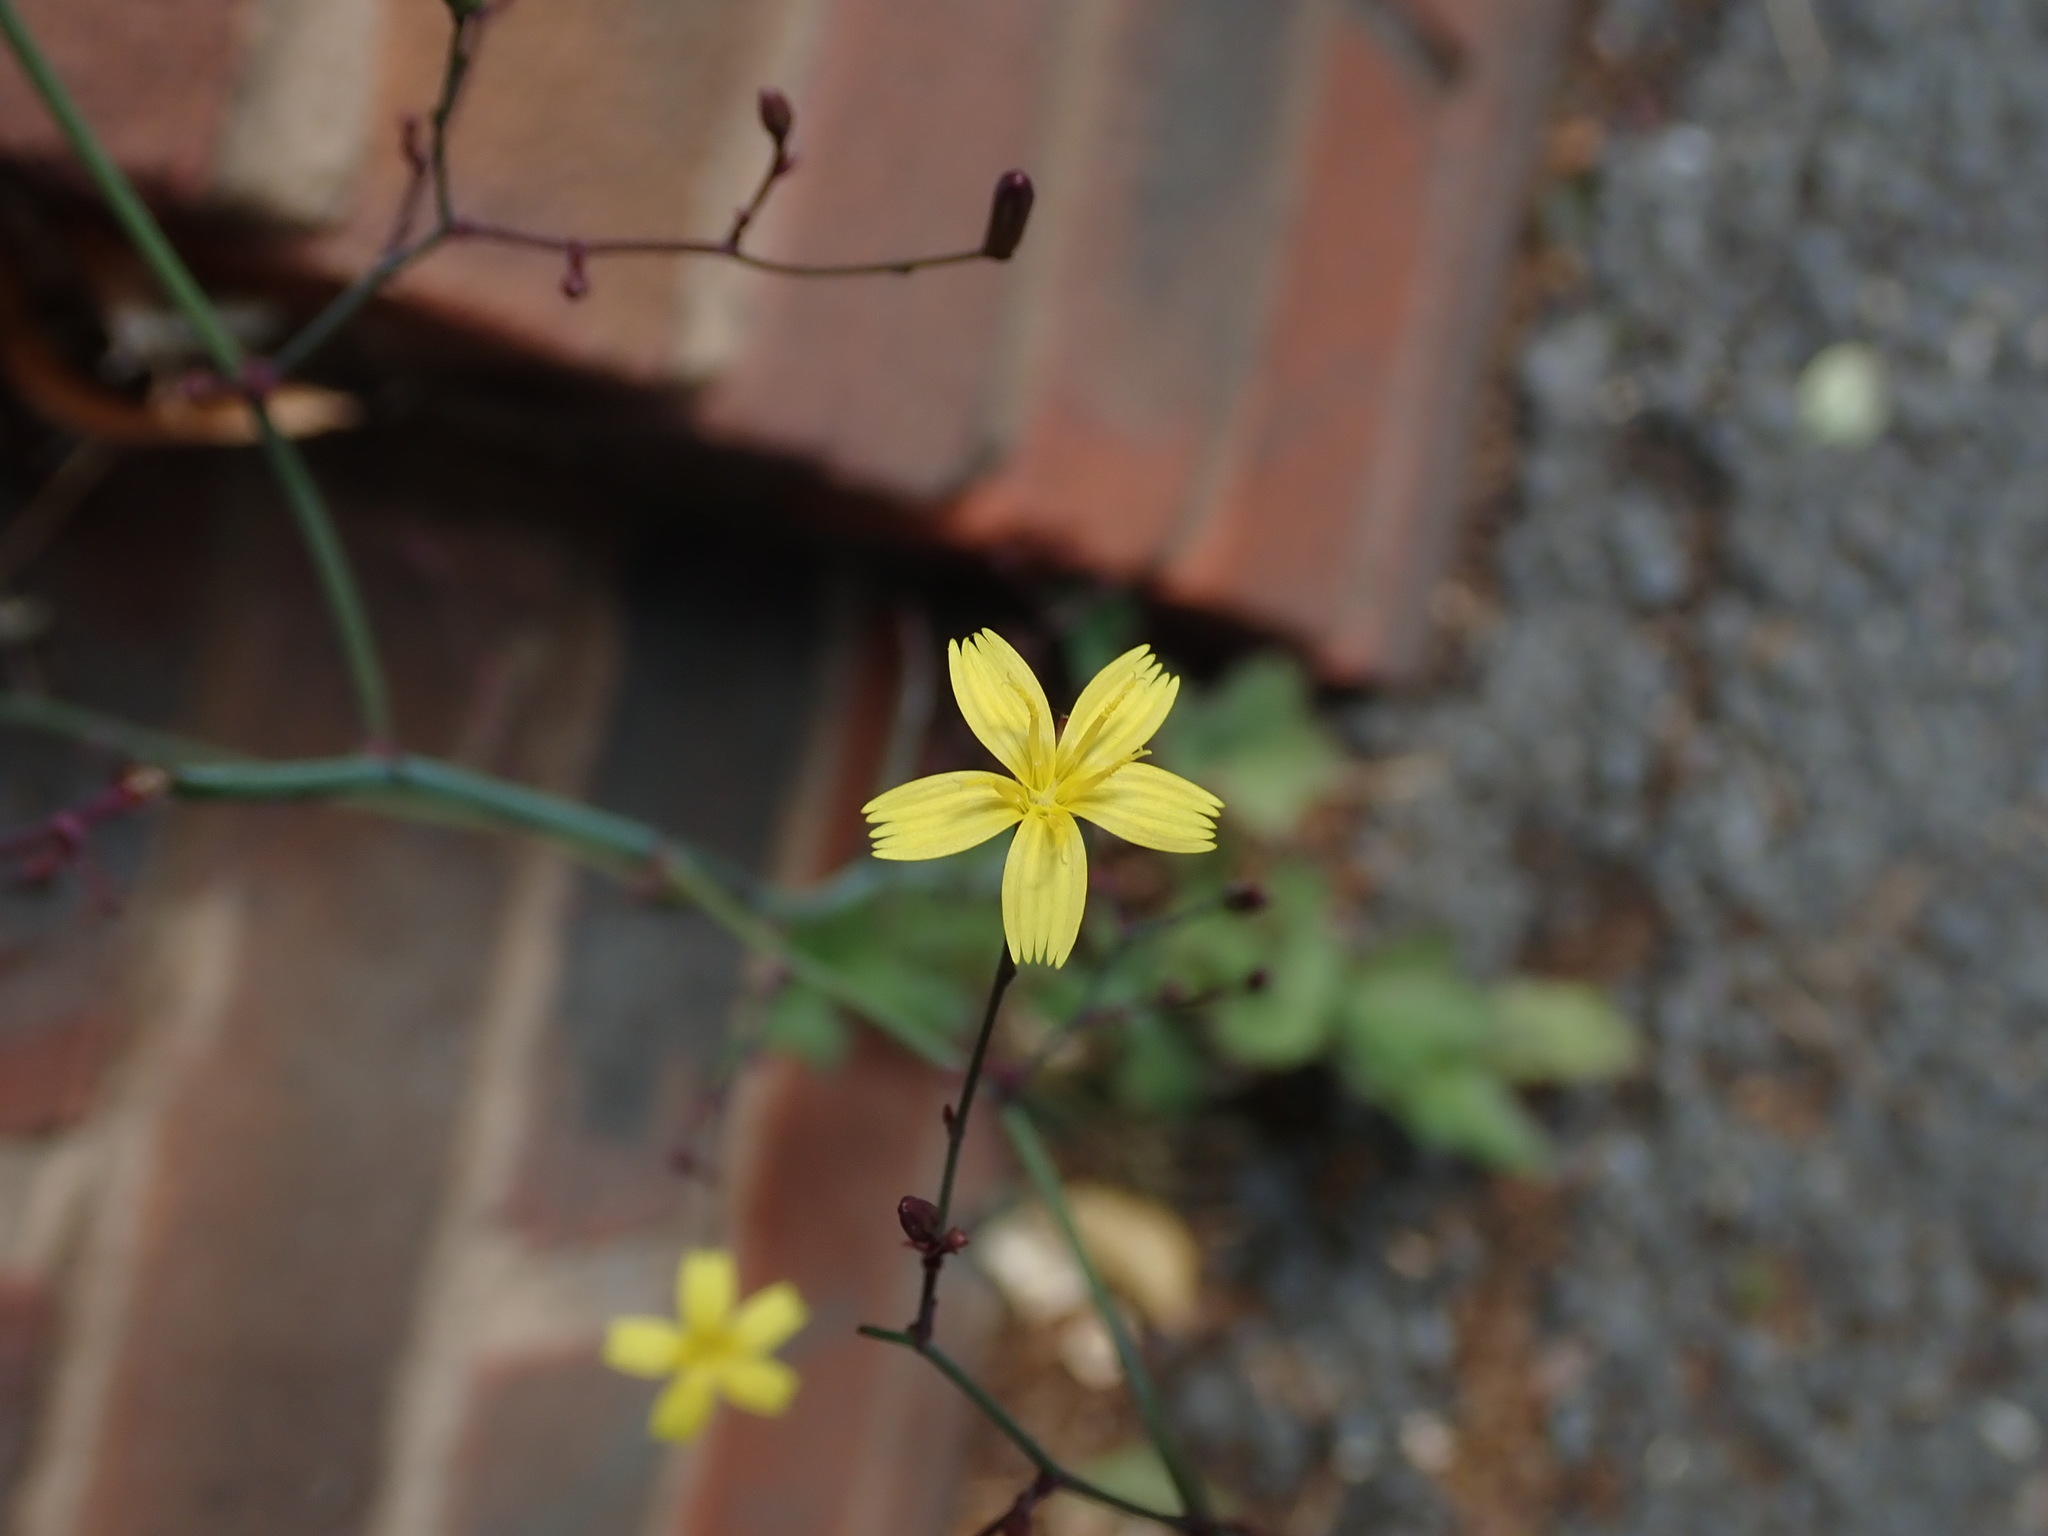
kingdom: Plantae
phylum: Tracheophyta
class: Magnoliopsida
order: Asterales
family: Asteraceae
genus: Mycelis
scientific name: Mycelis muralis
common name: Wall lettuce
